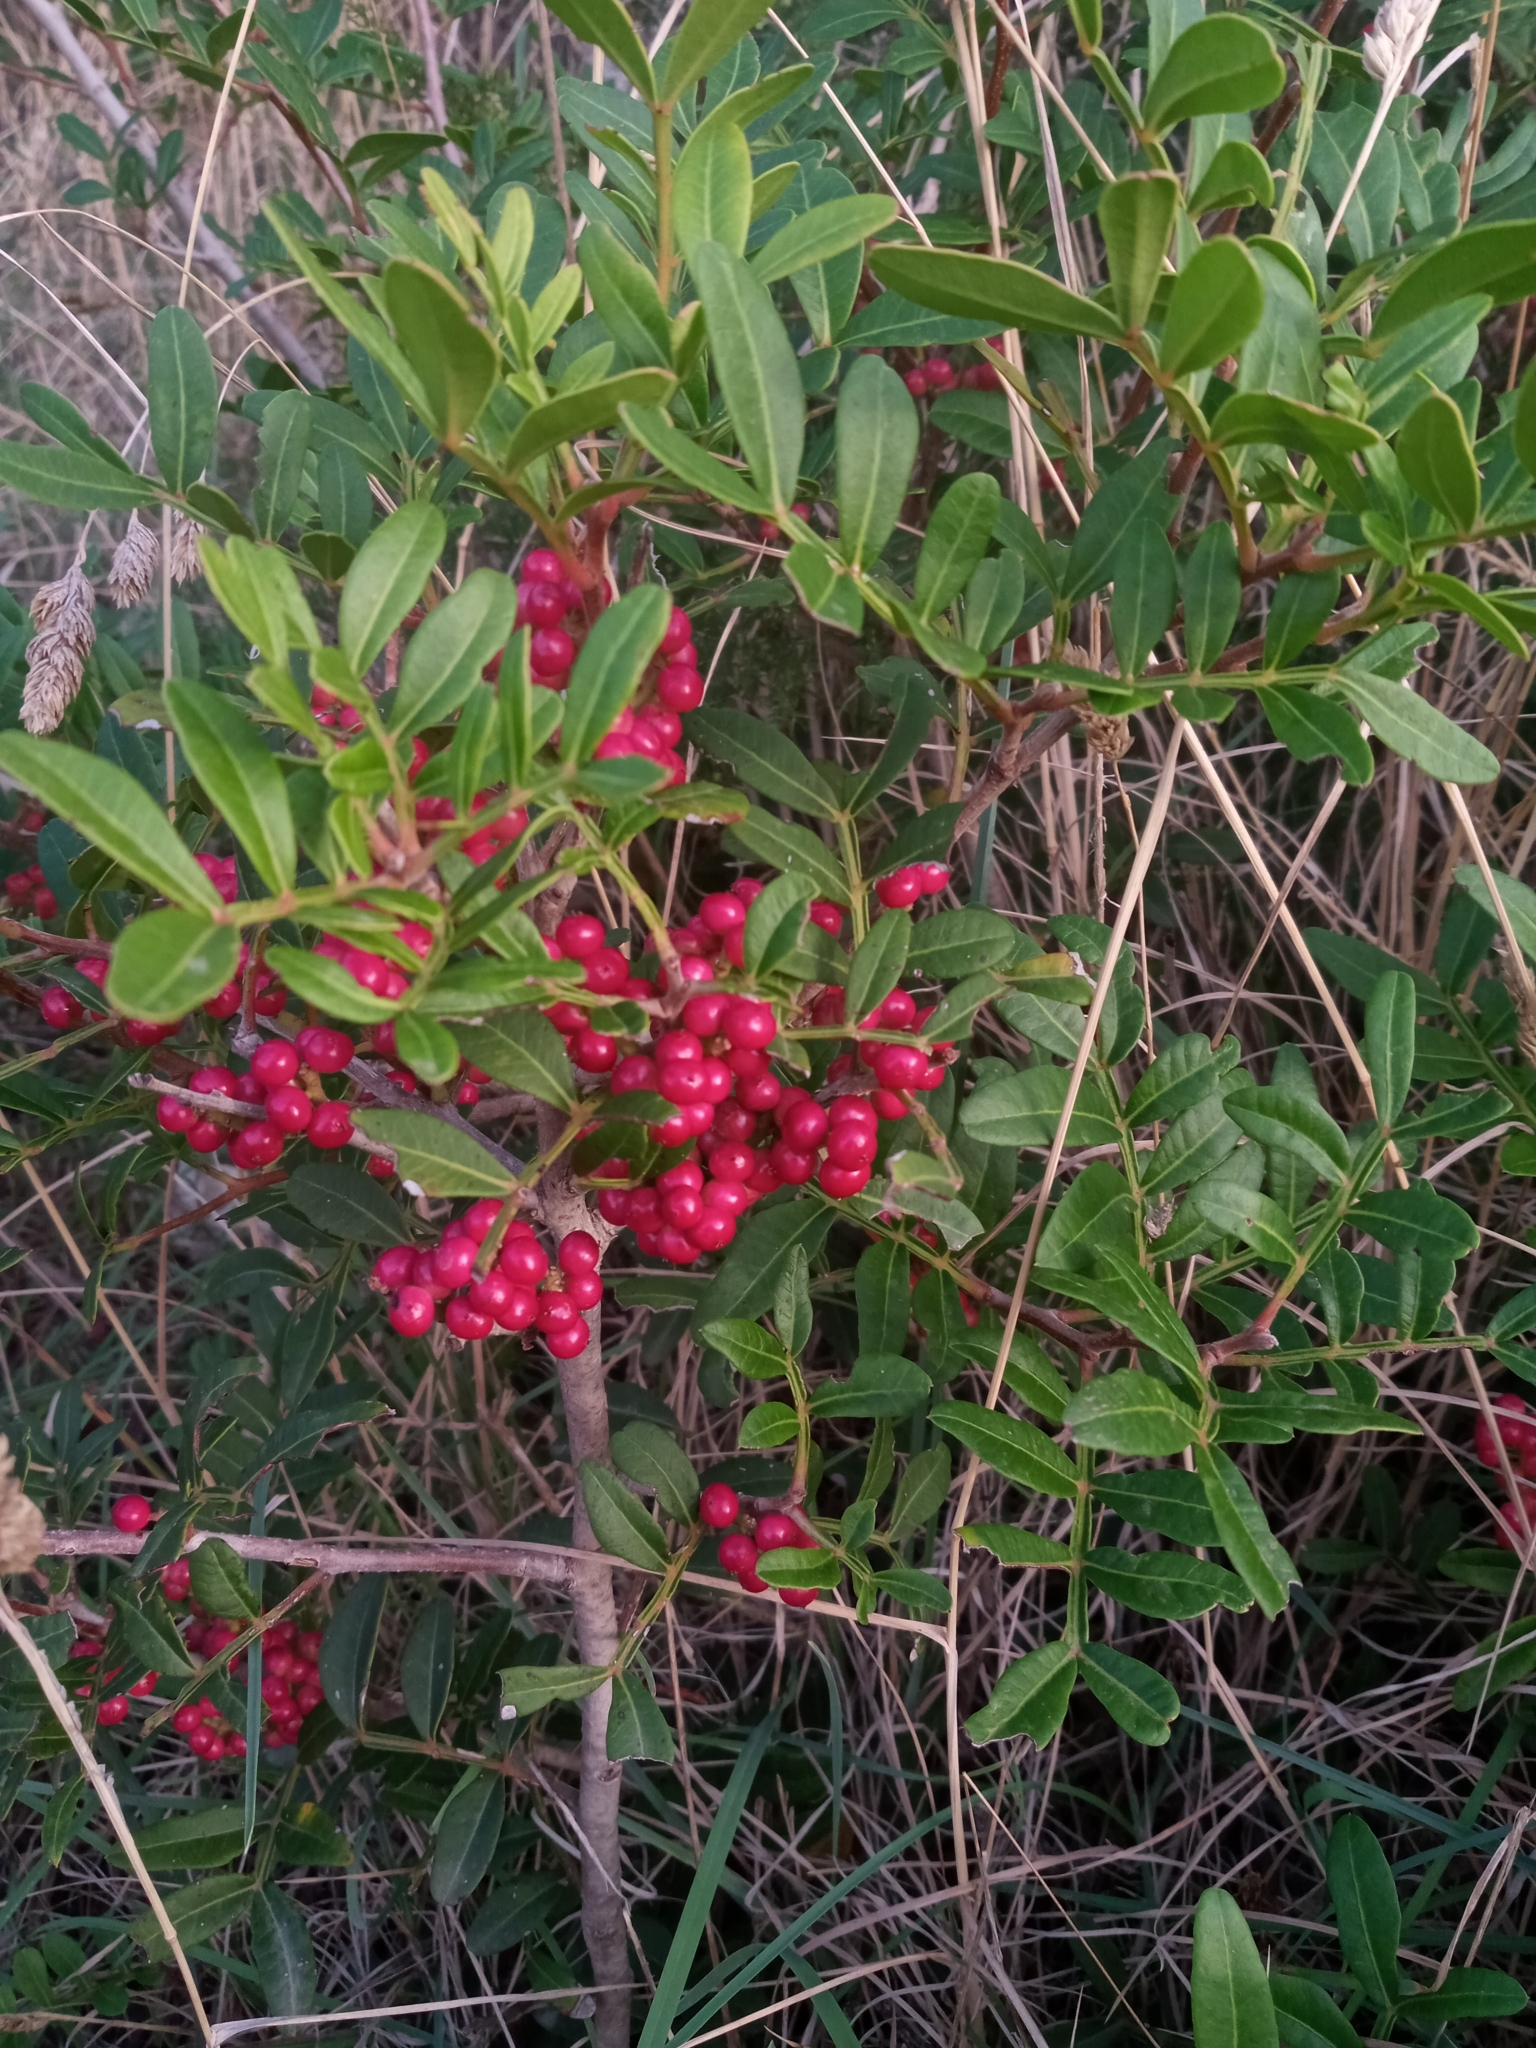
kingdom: Plantae
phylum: Tracheophyta
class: Magnoliopsida
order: Sapindales
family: Anacardiaceae
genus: Pistacia
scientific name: Pistacia lentiscus
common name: Lentisk
